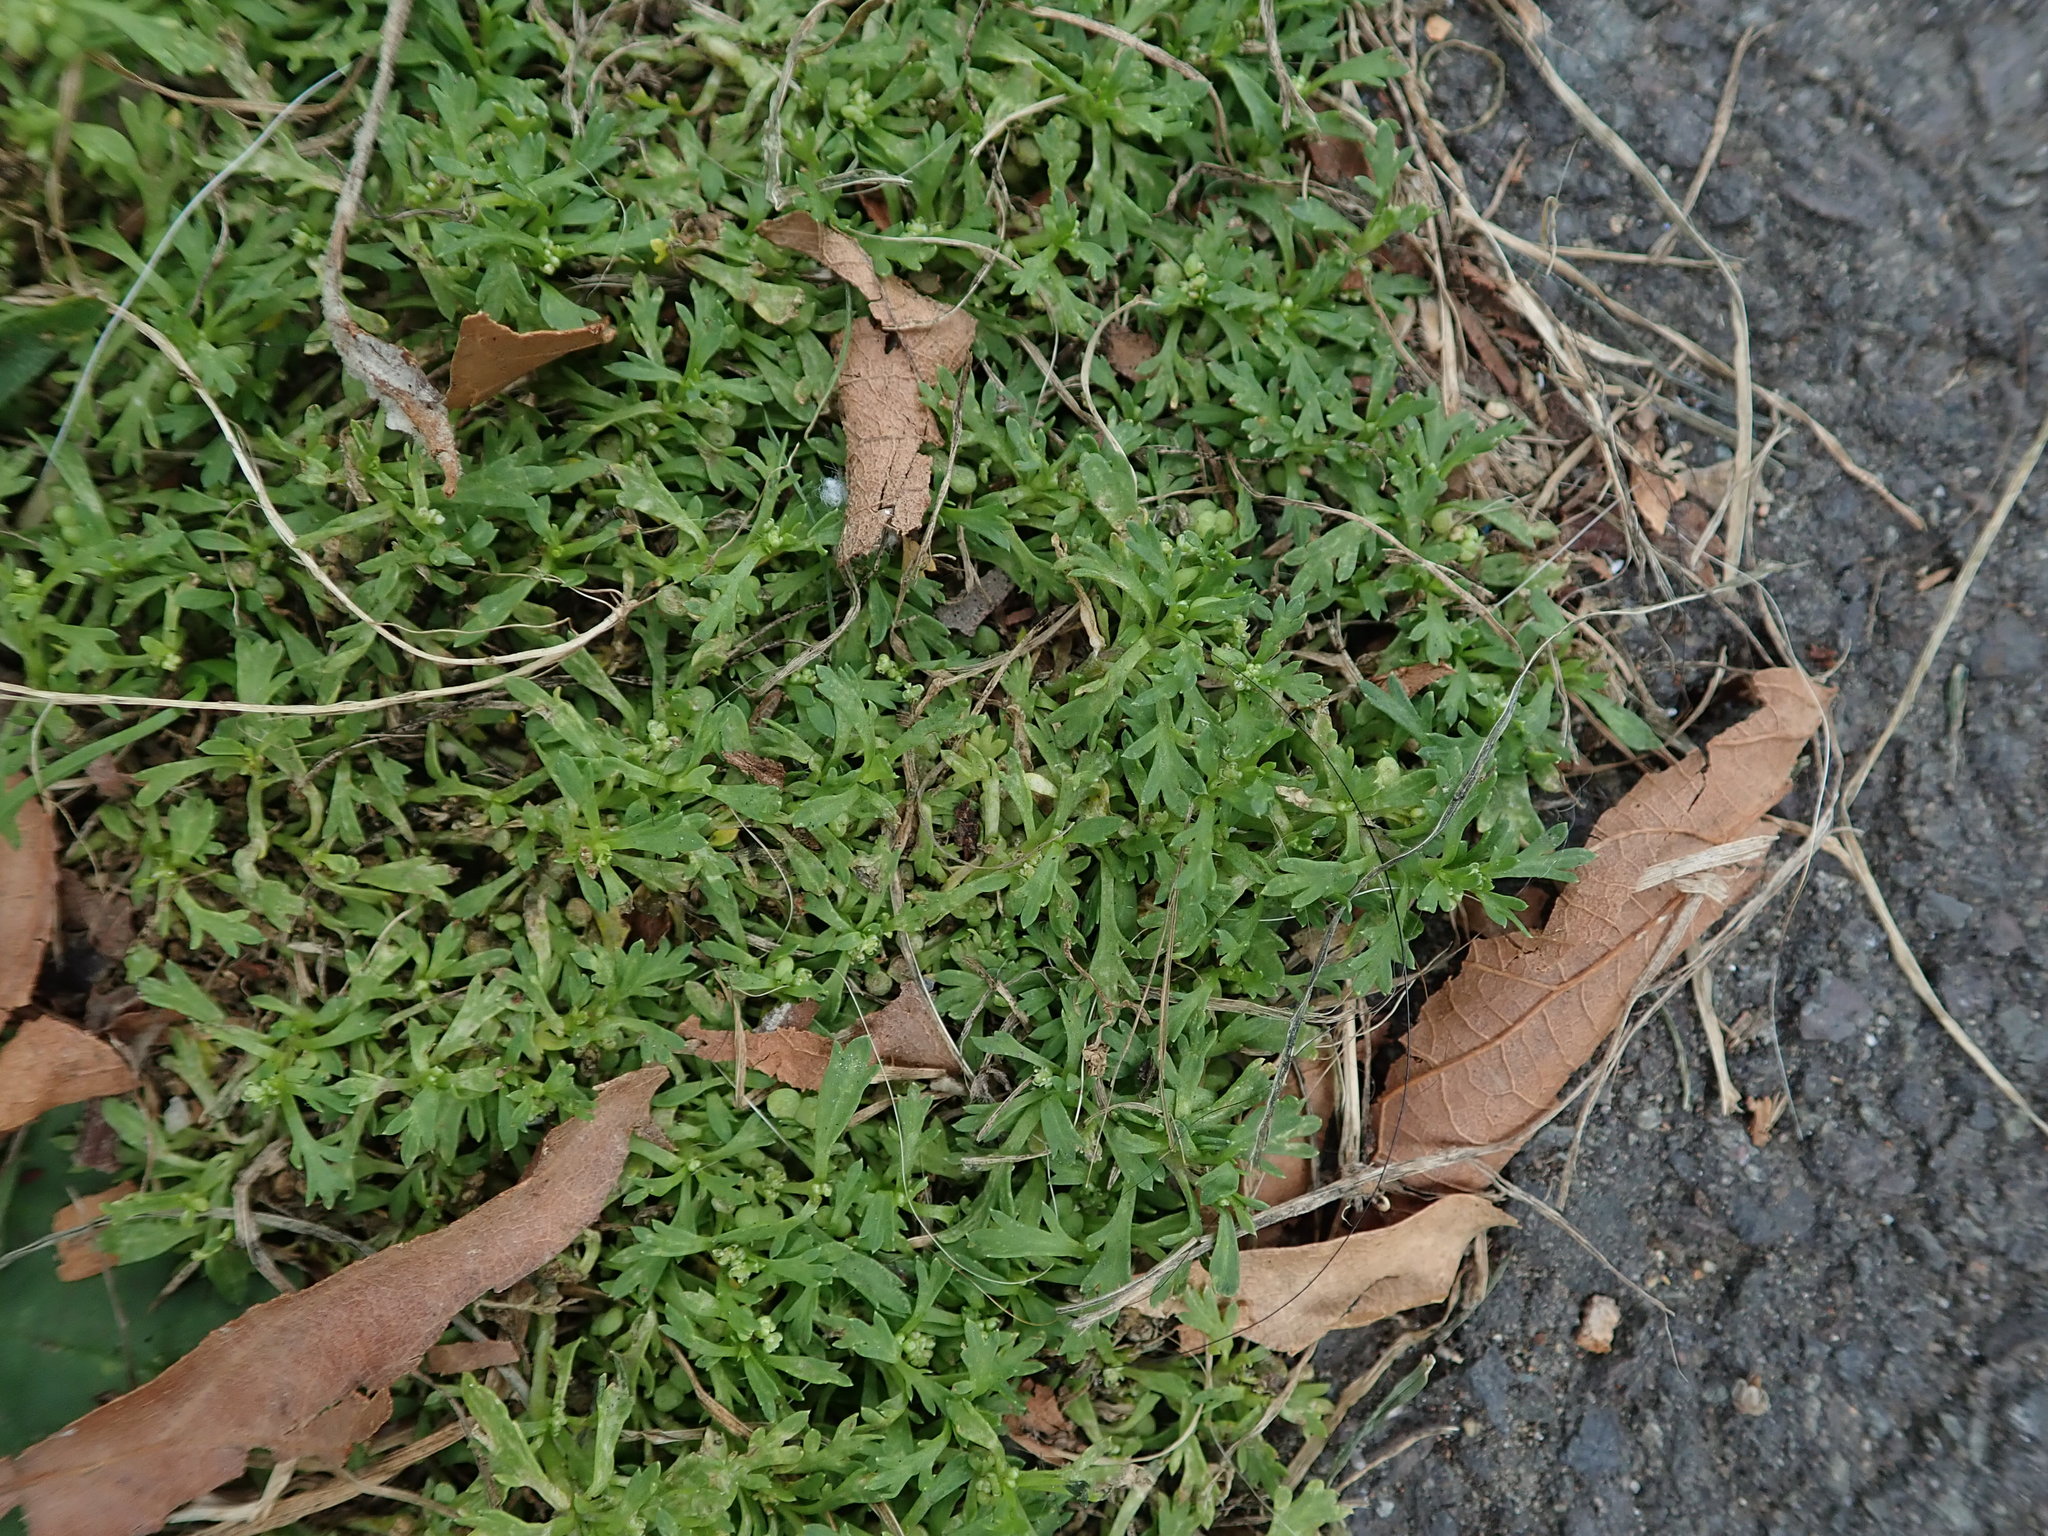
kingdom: Plantae
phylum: Tracheophyta
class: Magnoliopsida
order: Brassicales
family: Brassicaceae
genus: Lepidium
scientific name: Lepidium didymum
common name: Lesser swinecress
